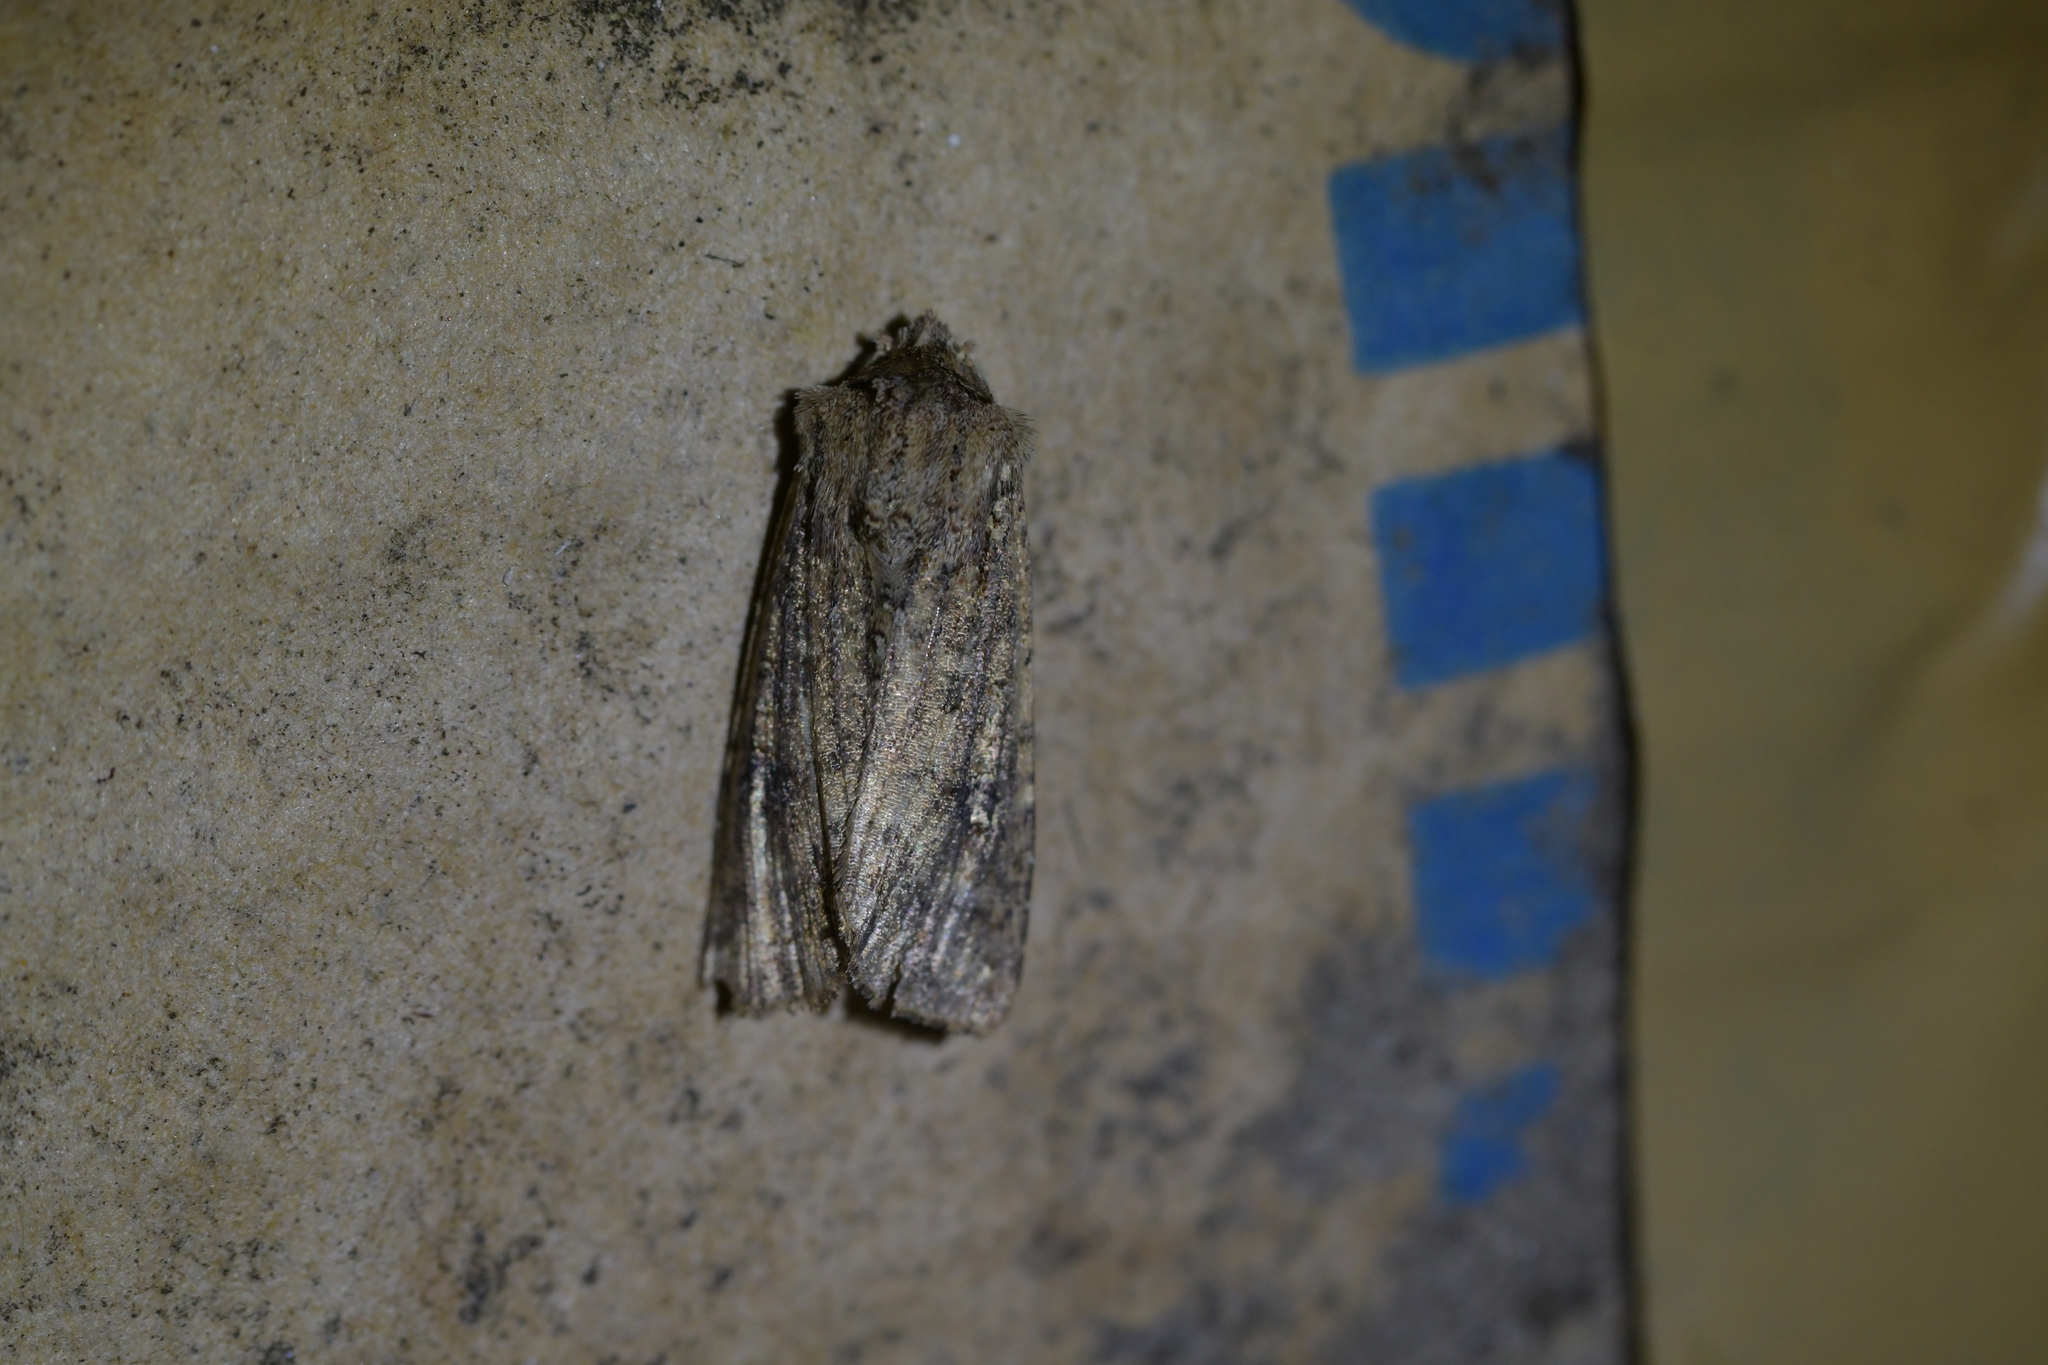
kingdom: Animalia
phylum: Arthropoda
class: Insecta
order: Lepidoptera
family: Noctuidae
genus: Ichneutica
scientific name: Ichneutica morosa
